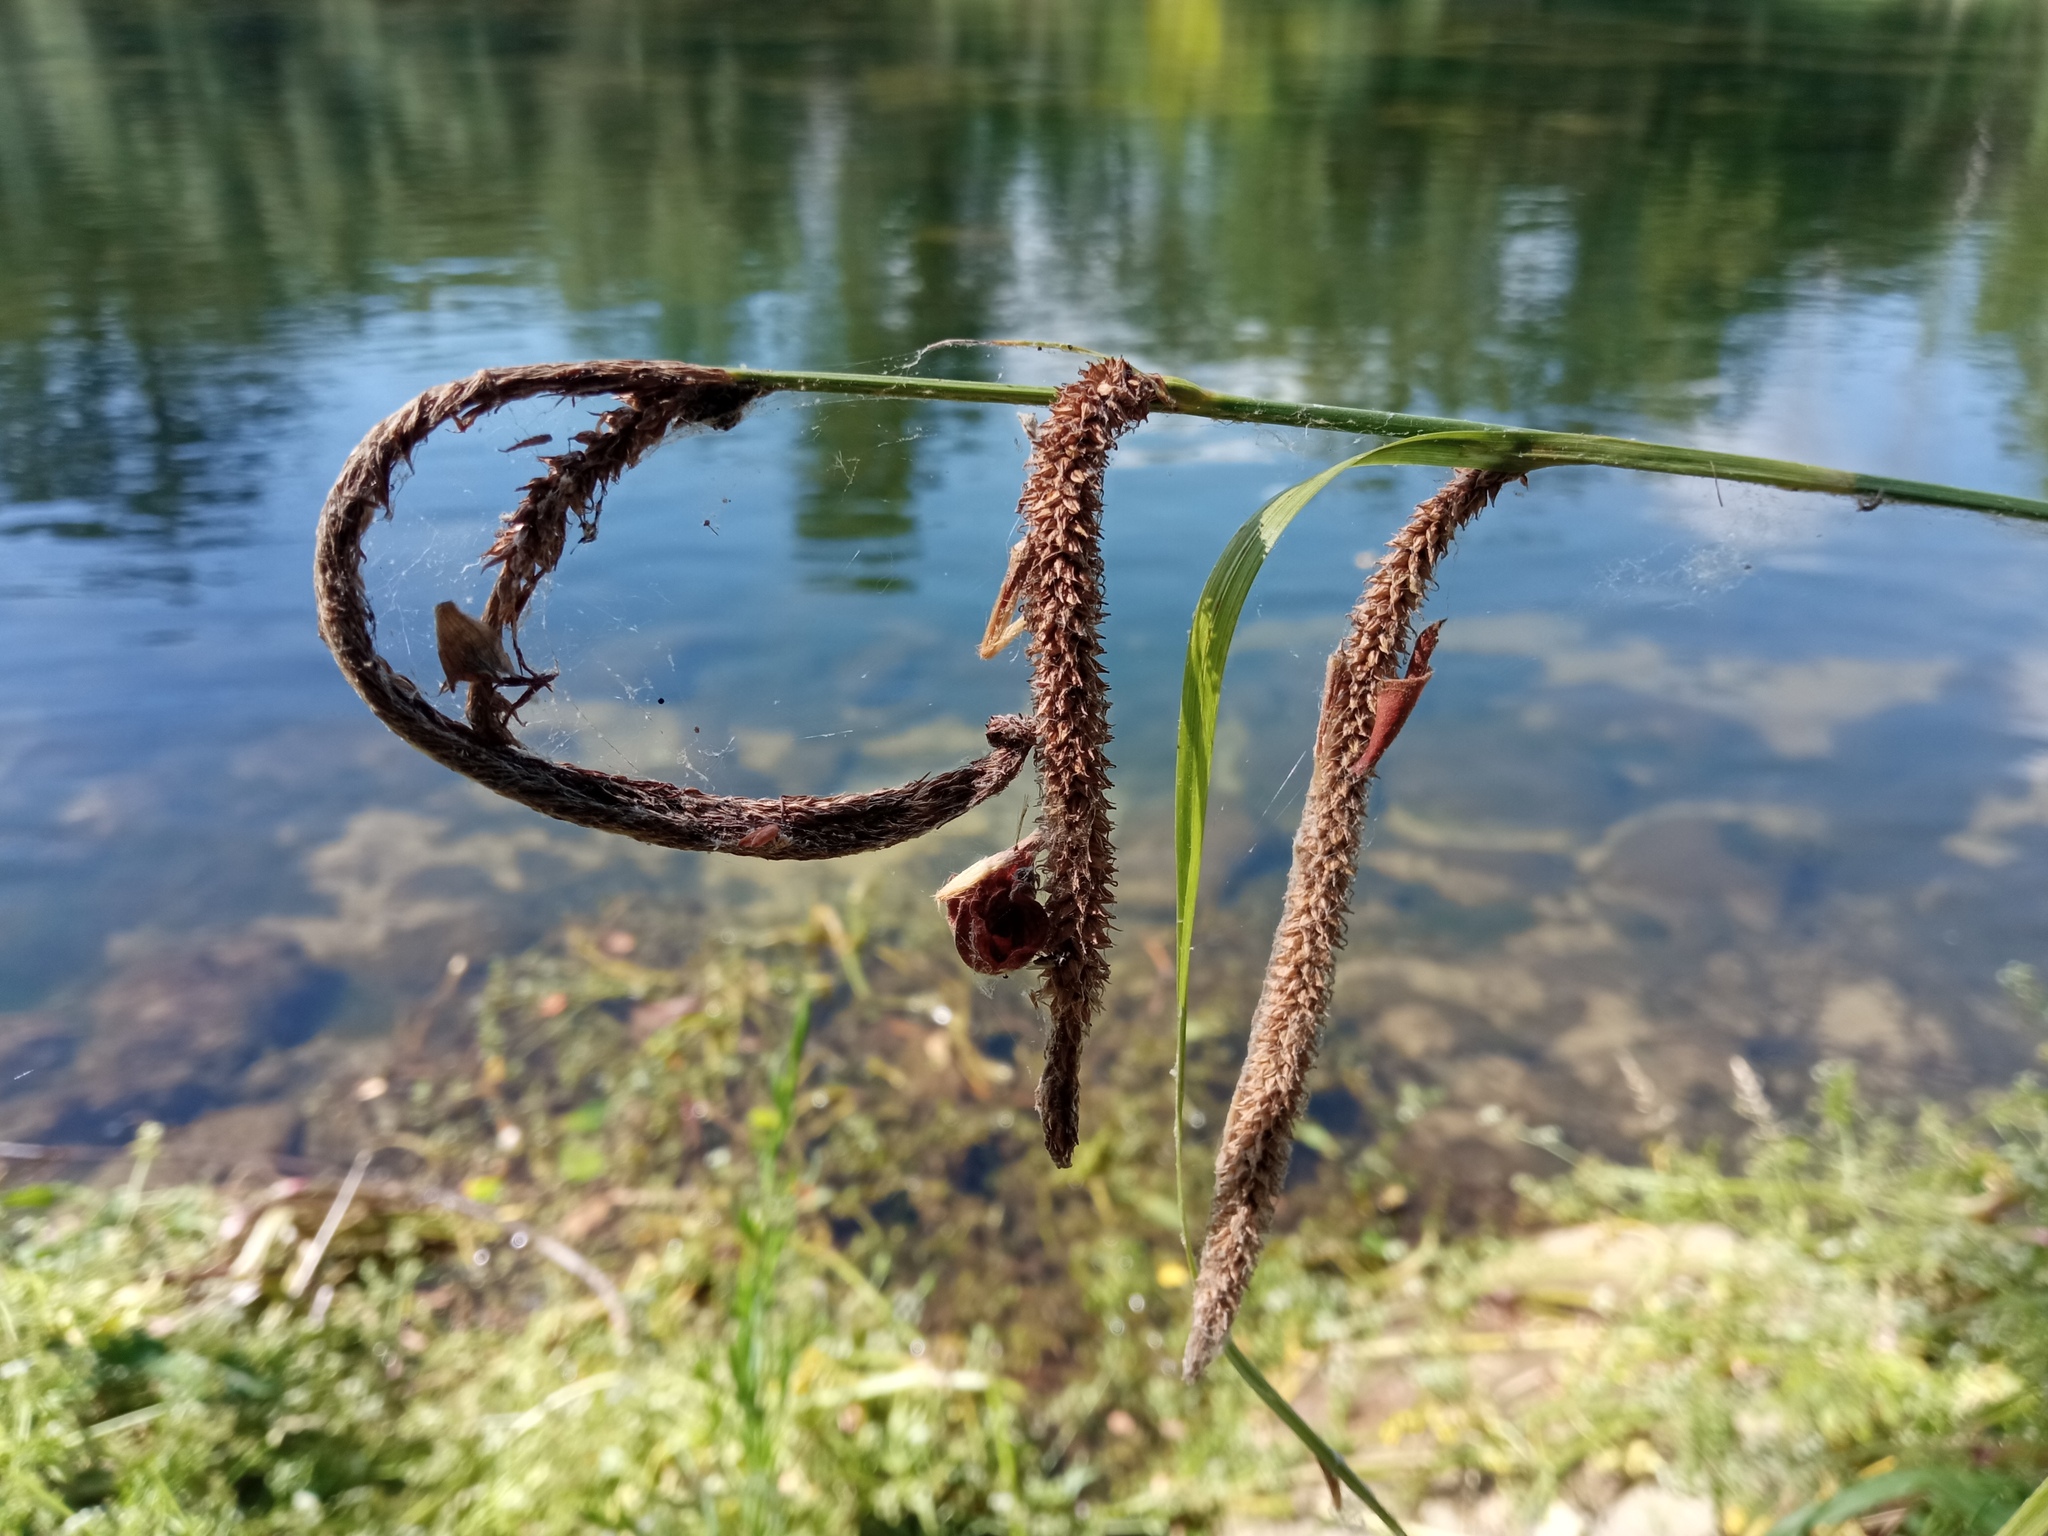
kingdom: Plantae
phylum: Tracheophyta
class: Liliopsida
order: Poales
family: Cyperaceae
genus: Carex
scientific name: Carex pendula
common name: Pendulous sedge
